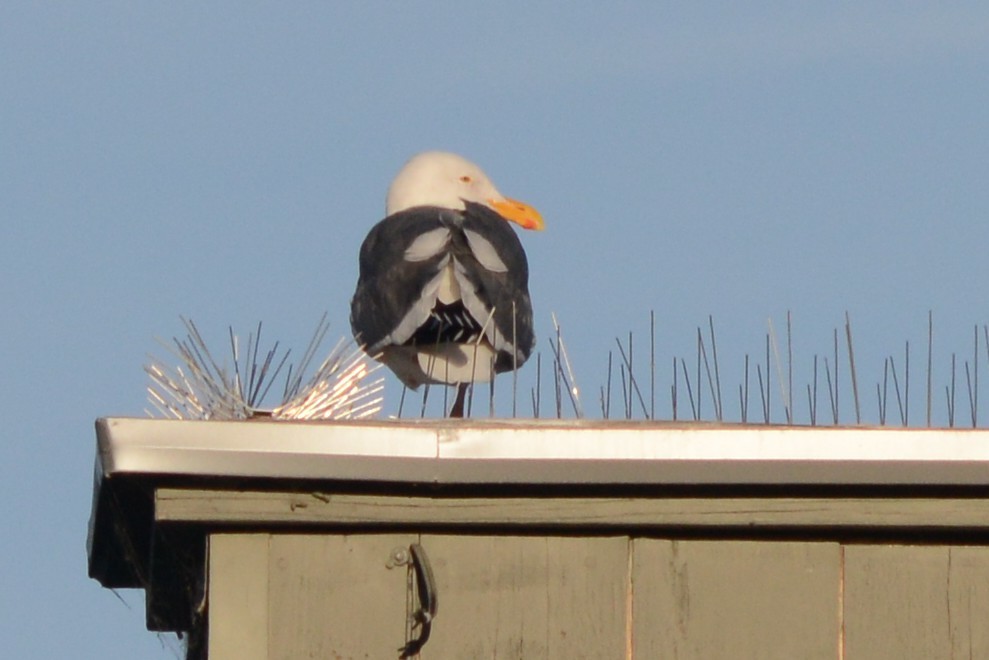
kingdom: Animalia
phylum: Chordata
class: Aves
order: Charadriiformes
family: Laridae
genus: Larus
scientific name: Larus occidentalis
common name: Western gull
